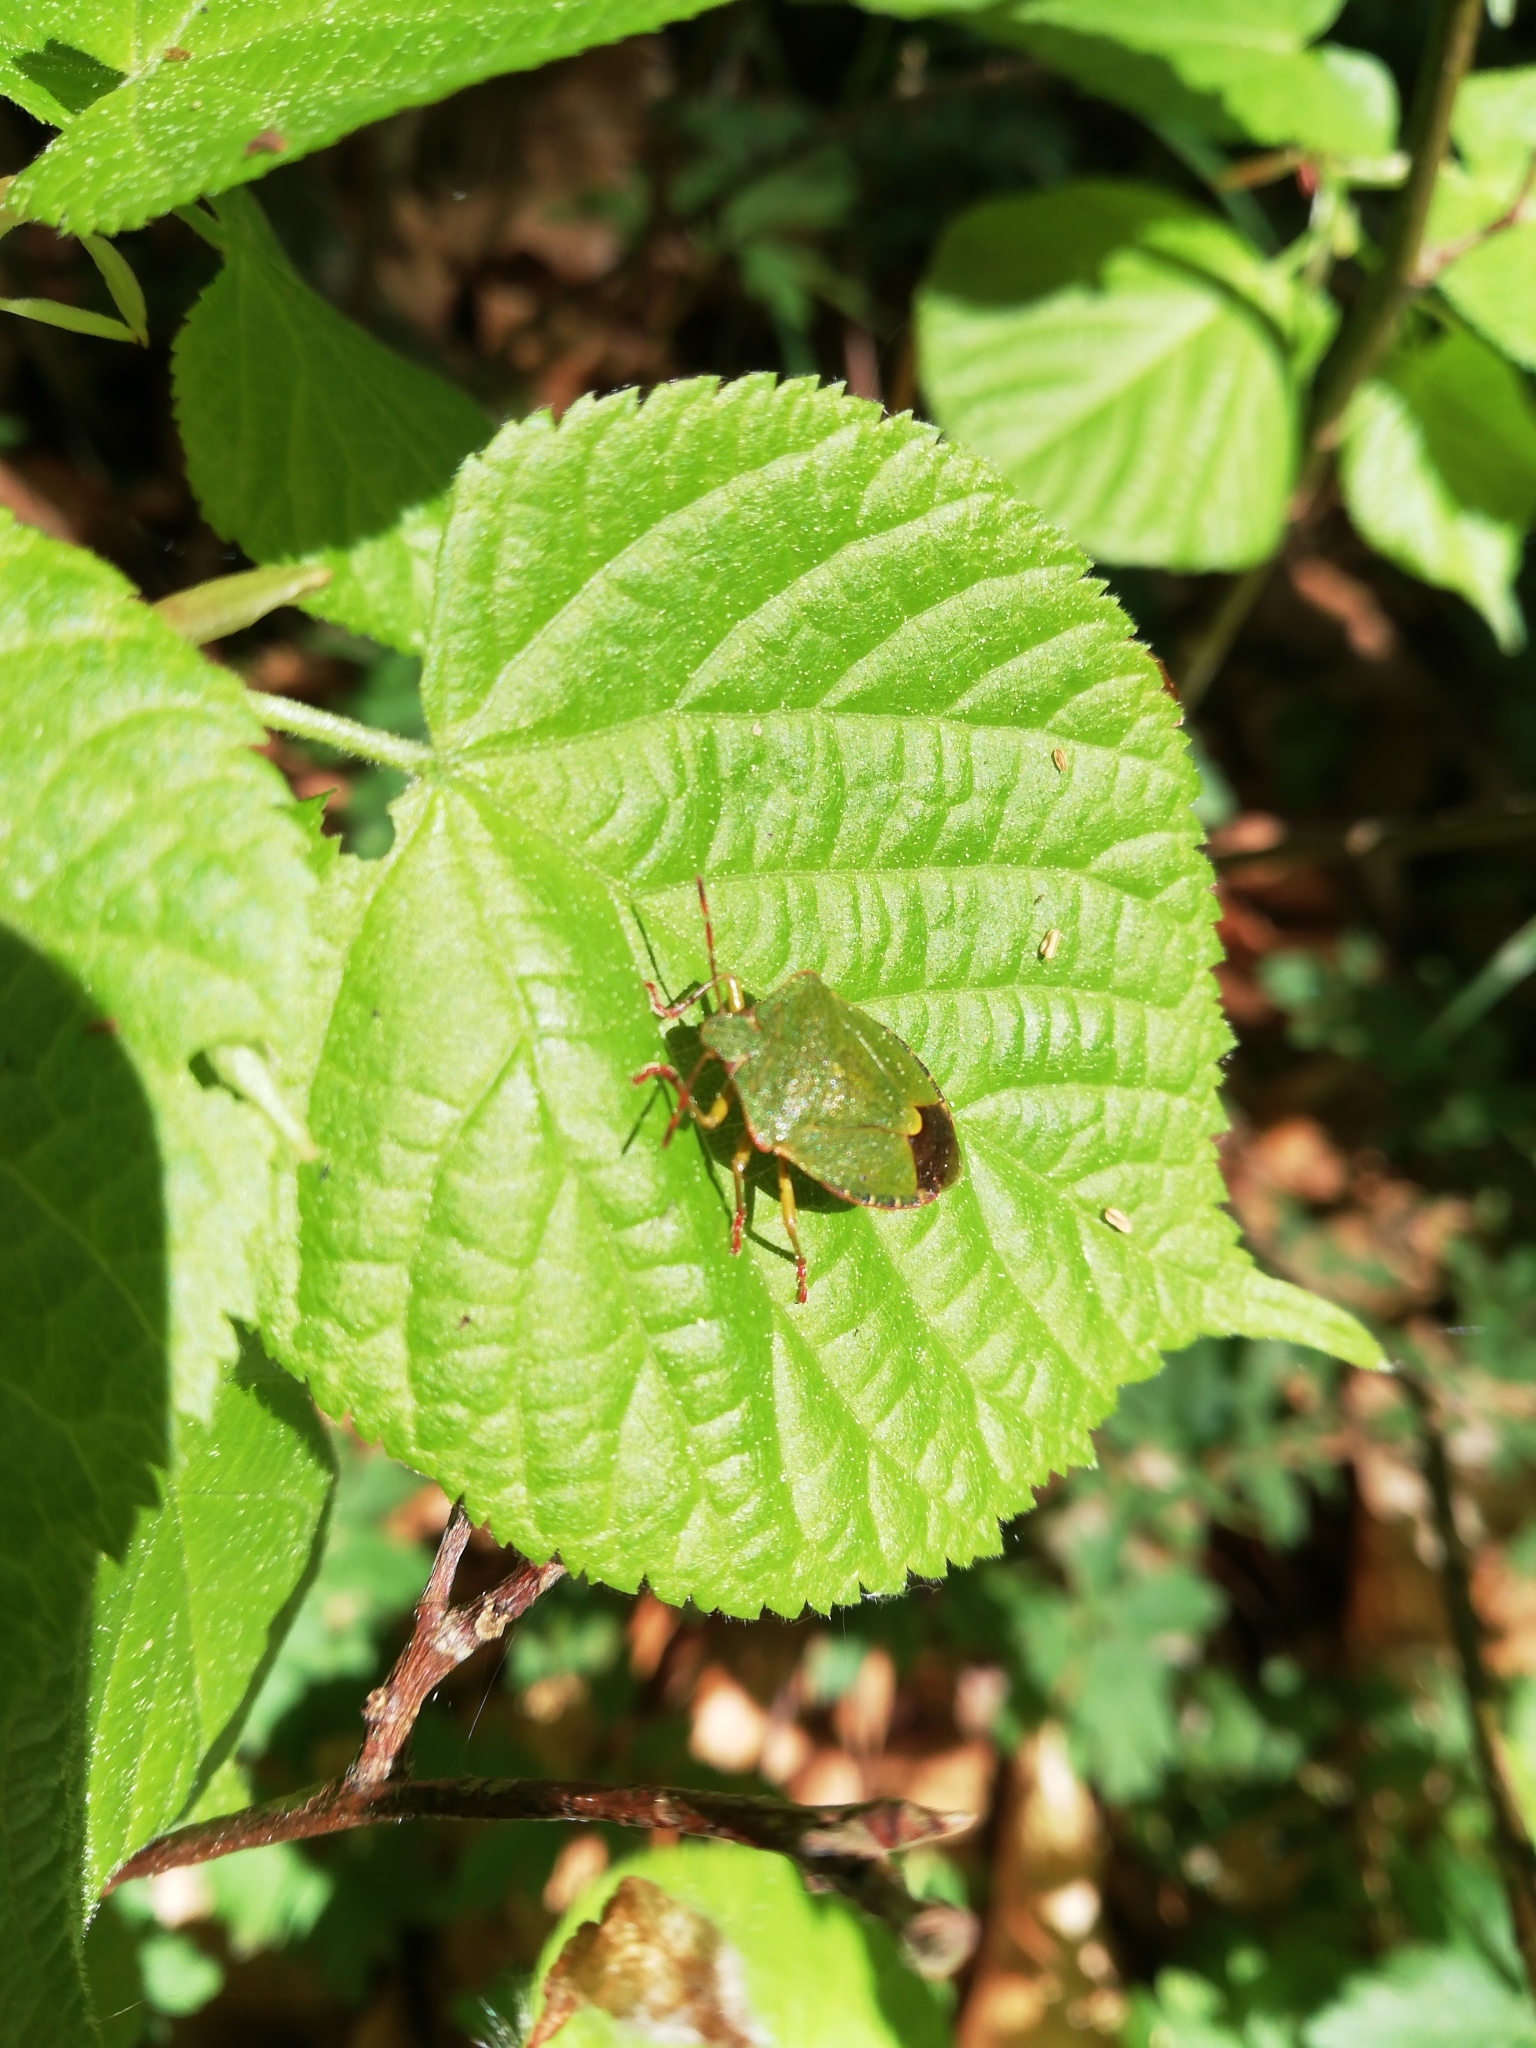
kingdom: Animalia
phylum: Arthropoda
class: Insecta
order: Hemiptera
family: Pentatomidae
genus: Palomena
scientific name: Palomena prasina
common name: Green shieldbug
